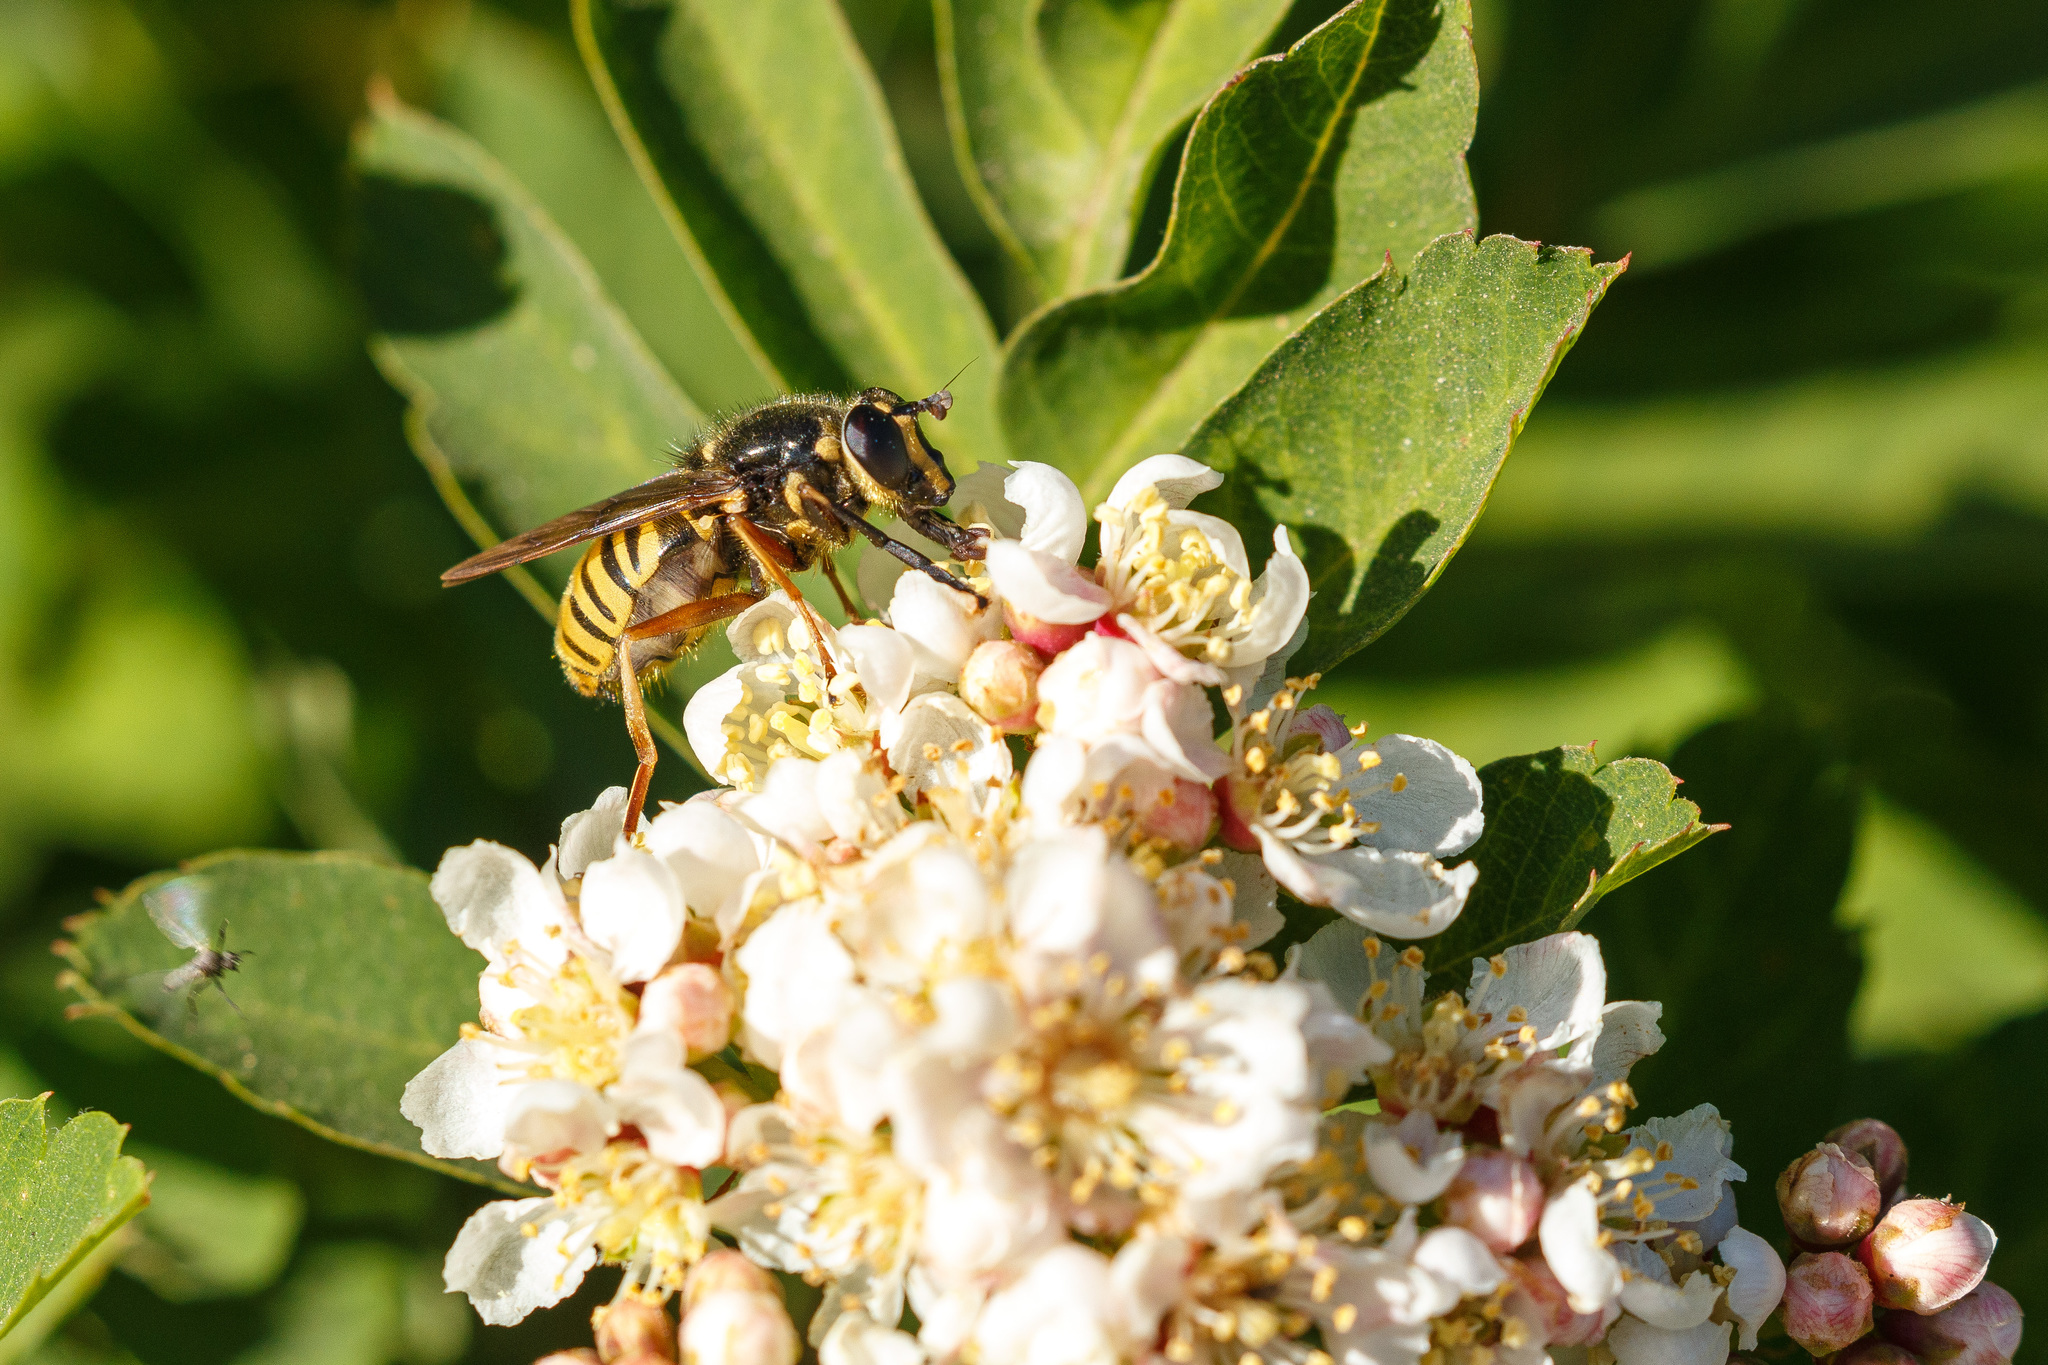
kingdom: Animalia
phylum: Arthropoda
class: Insecta
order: Diptera
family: Syrphidae
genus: Sphecomyia
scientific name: Sphecomyia pattonii
